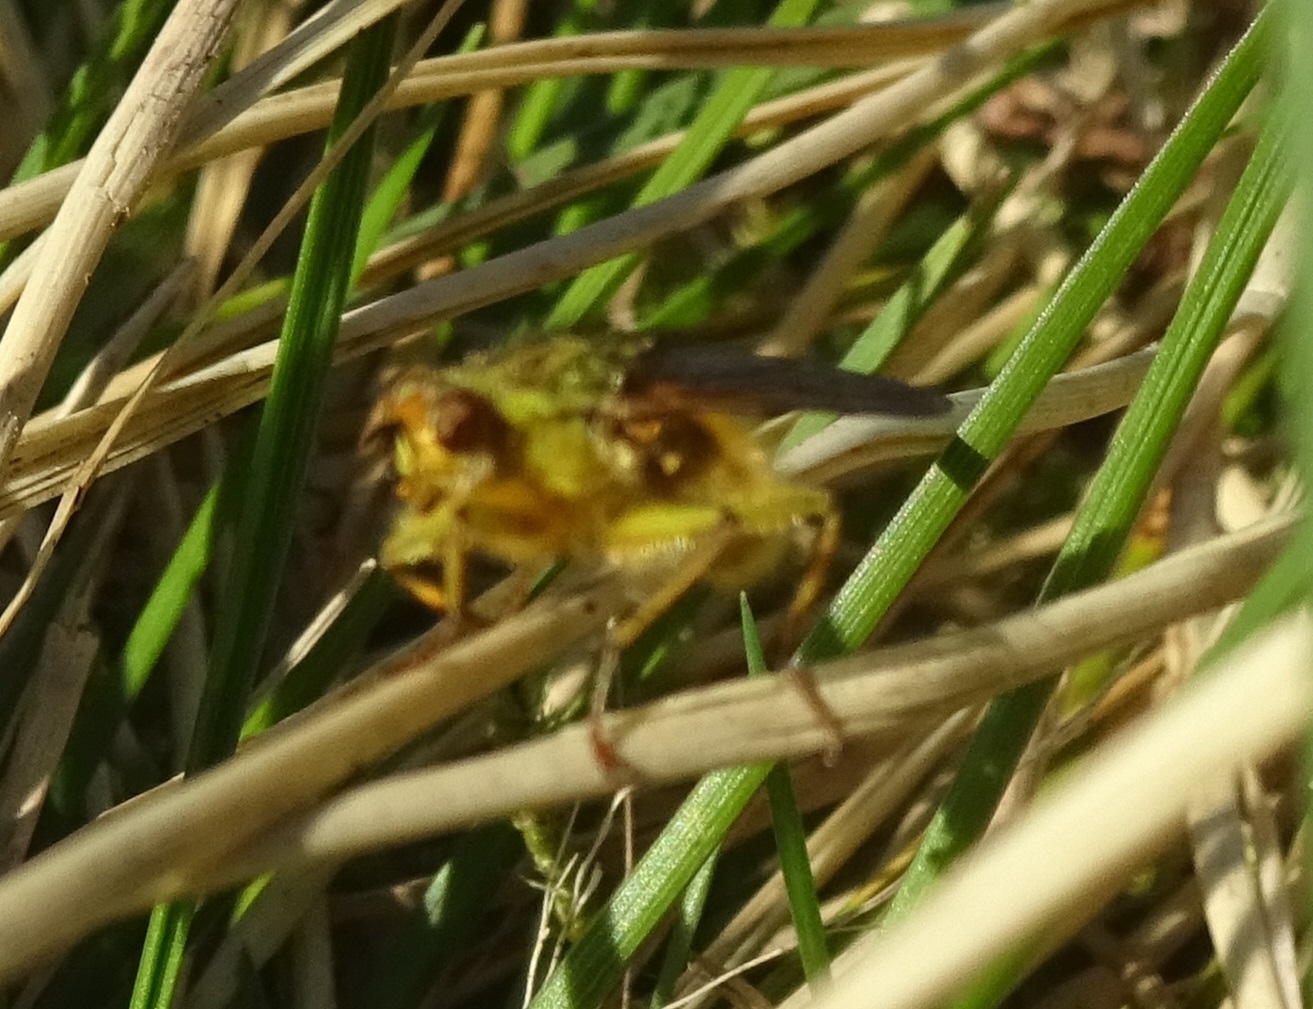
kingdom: Animalia
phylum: Arthropoda
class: Insecta
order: Diptera
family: Scathophagidae
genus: Scathophaga
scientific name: Scathophaga stercoraria
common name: Yellow dung fly
